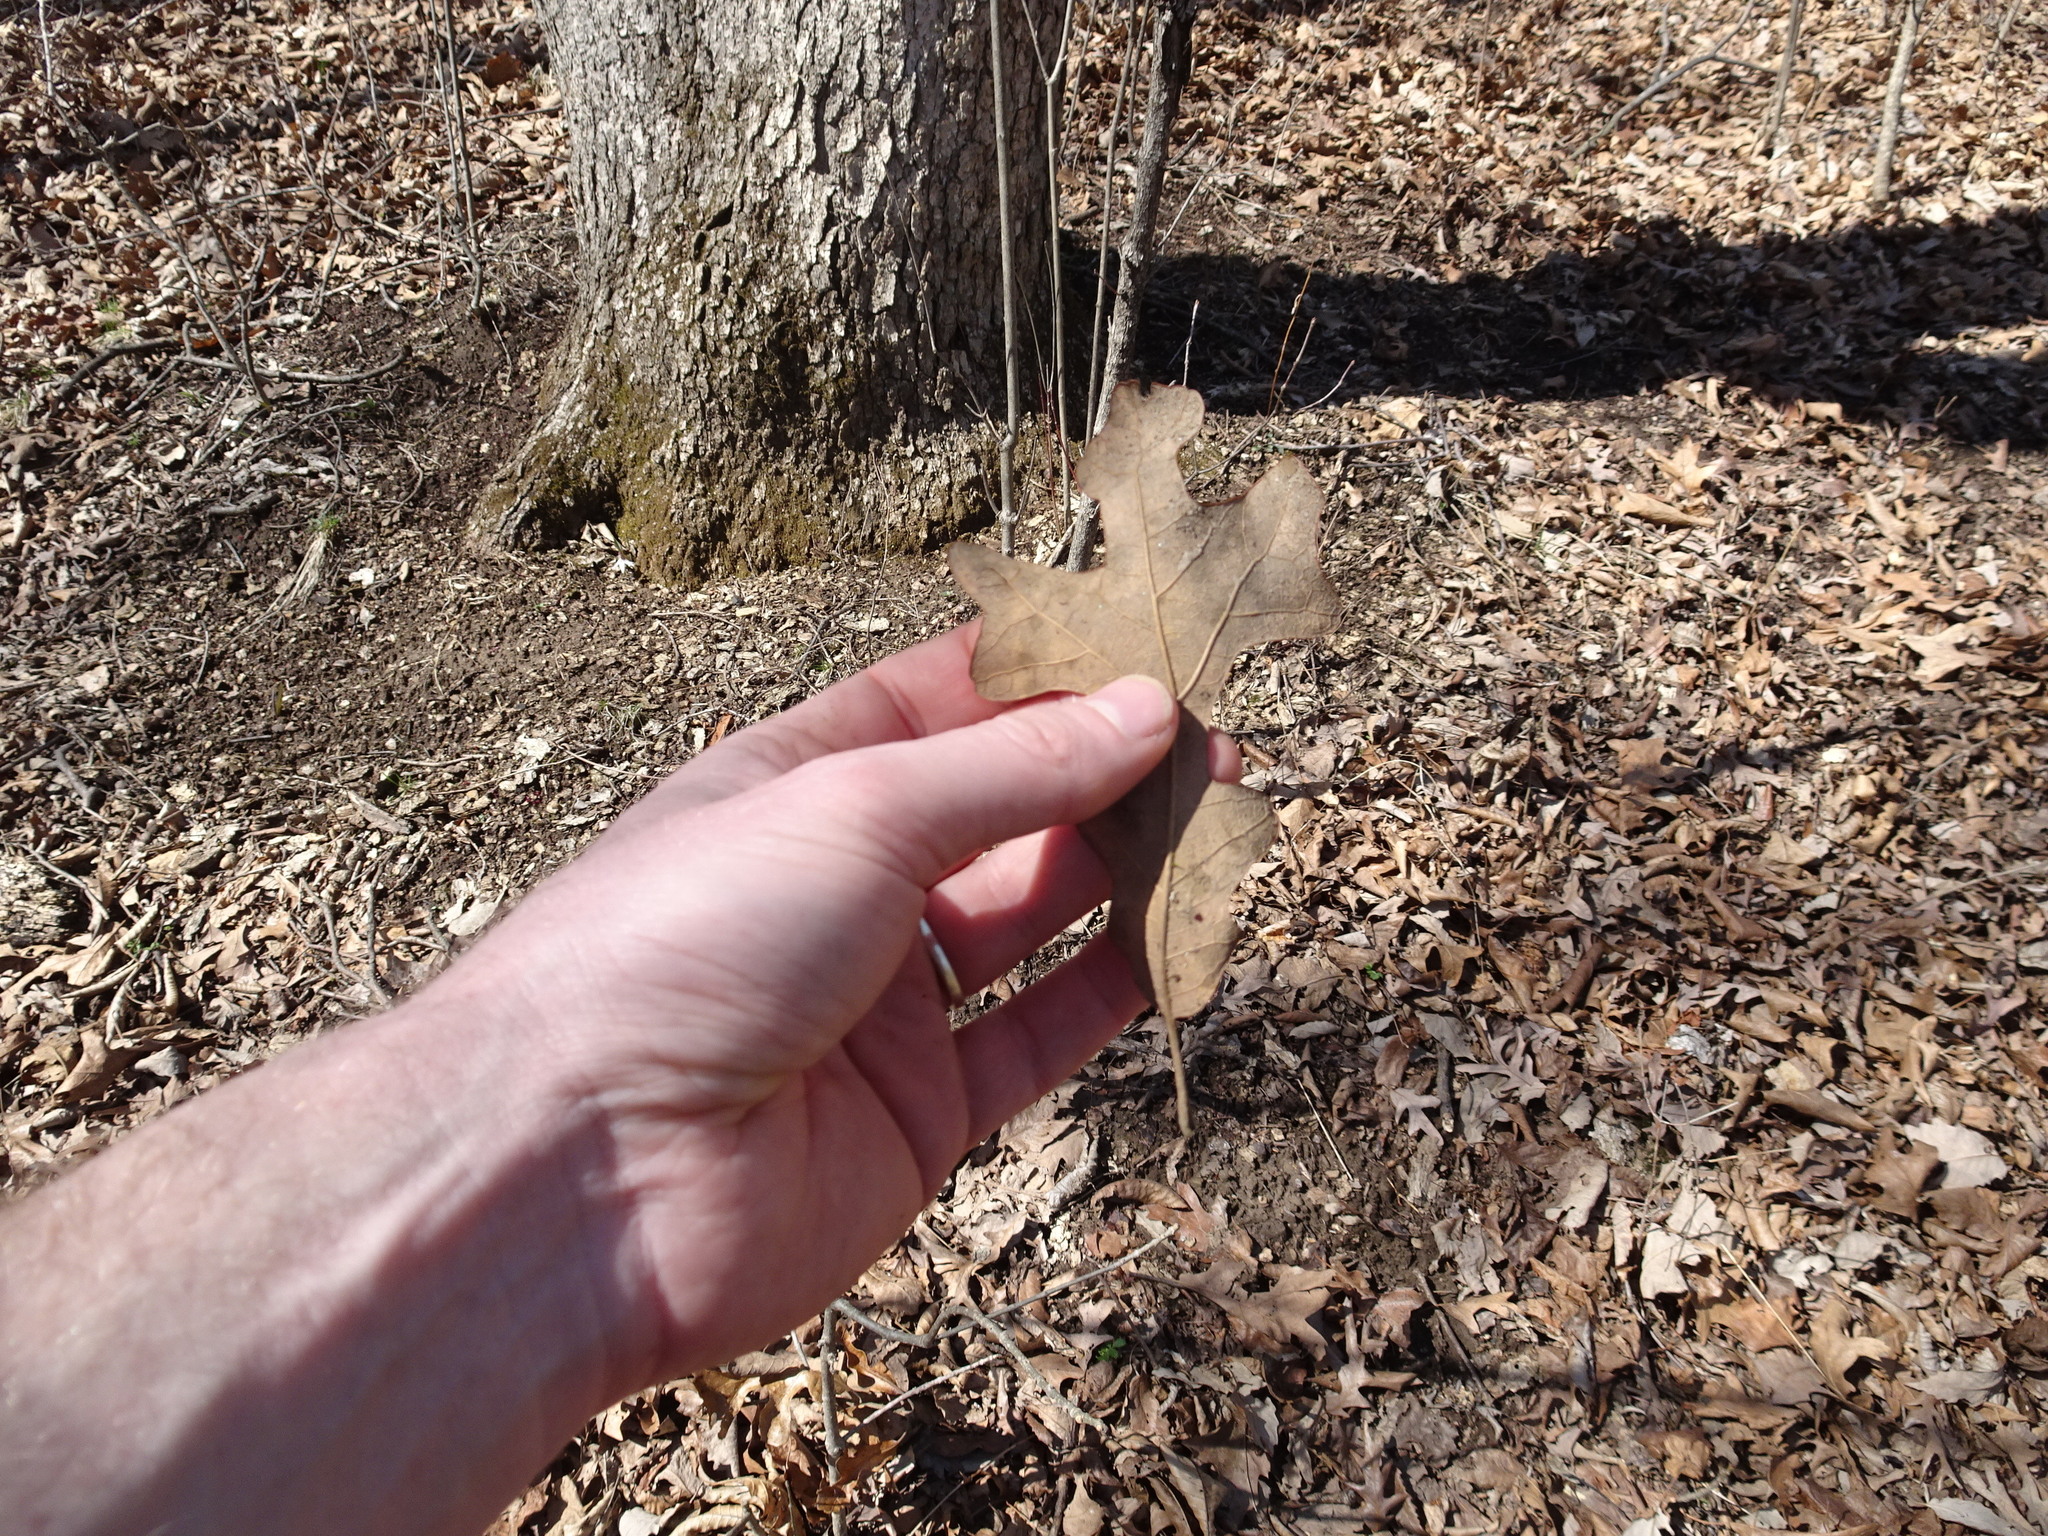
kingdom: Plantae
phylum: Tracheophyta
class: Magnoliopsida
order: Fagales
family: Fagaceae
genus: Quercus
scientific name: Quercus stellata
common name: Post oak
